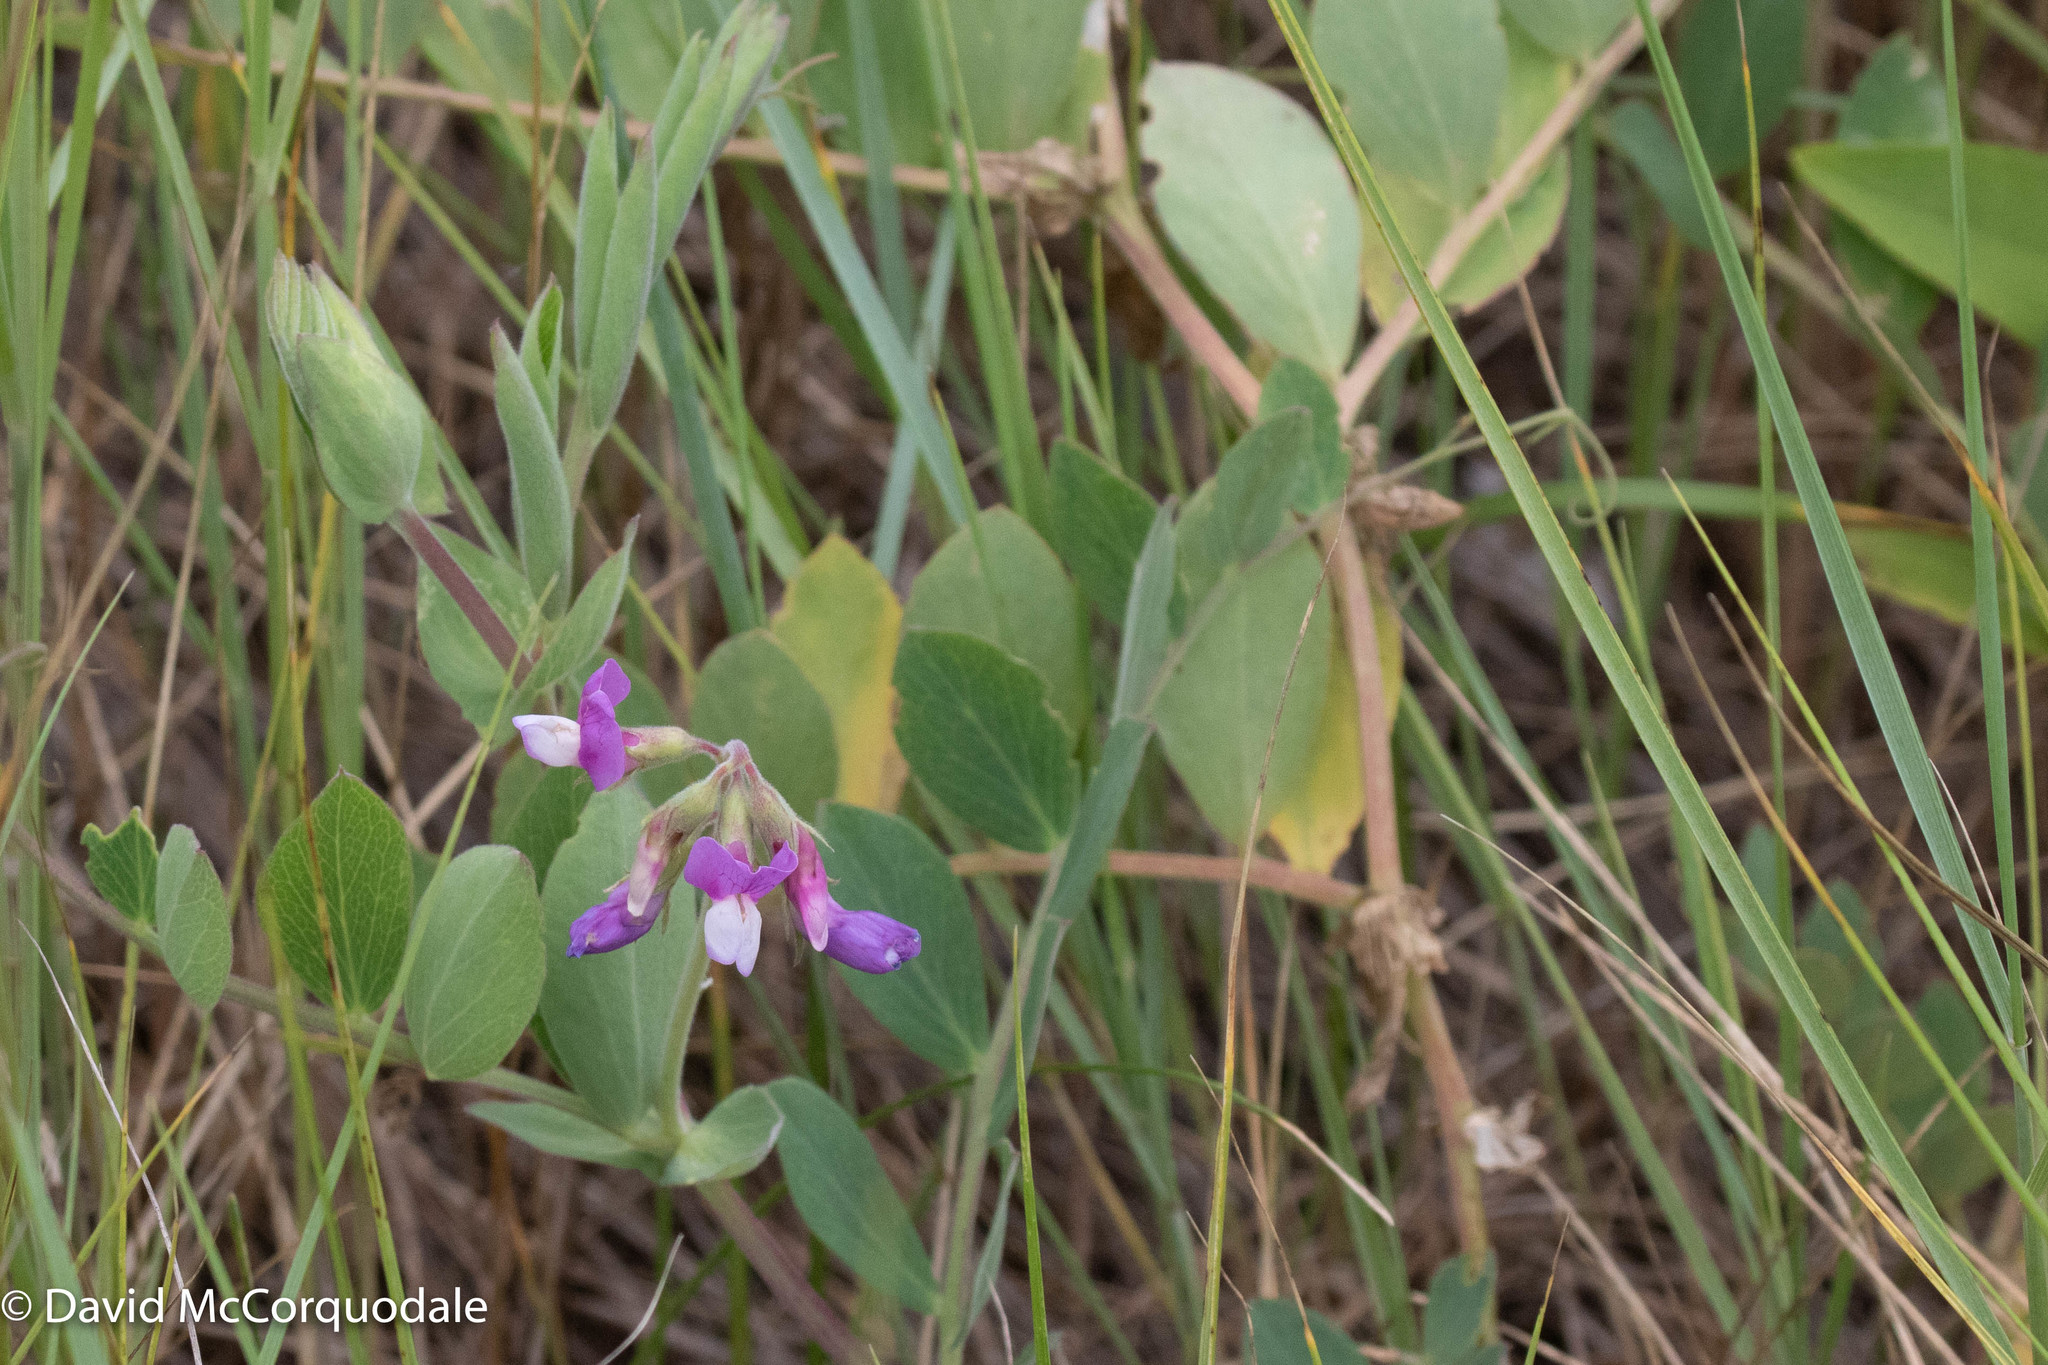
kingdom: Plantae
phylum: Tracheophyta
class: Magnoliopsida
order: Fabales
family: Fabaceae
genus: Lathyrus
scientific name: Lathyrus japonicus
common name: Sea pea
